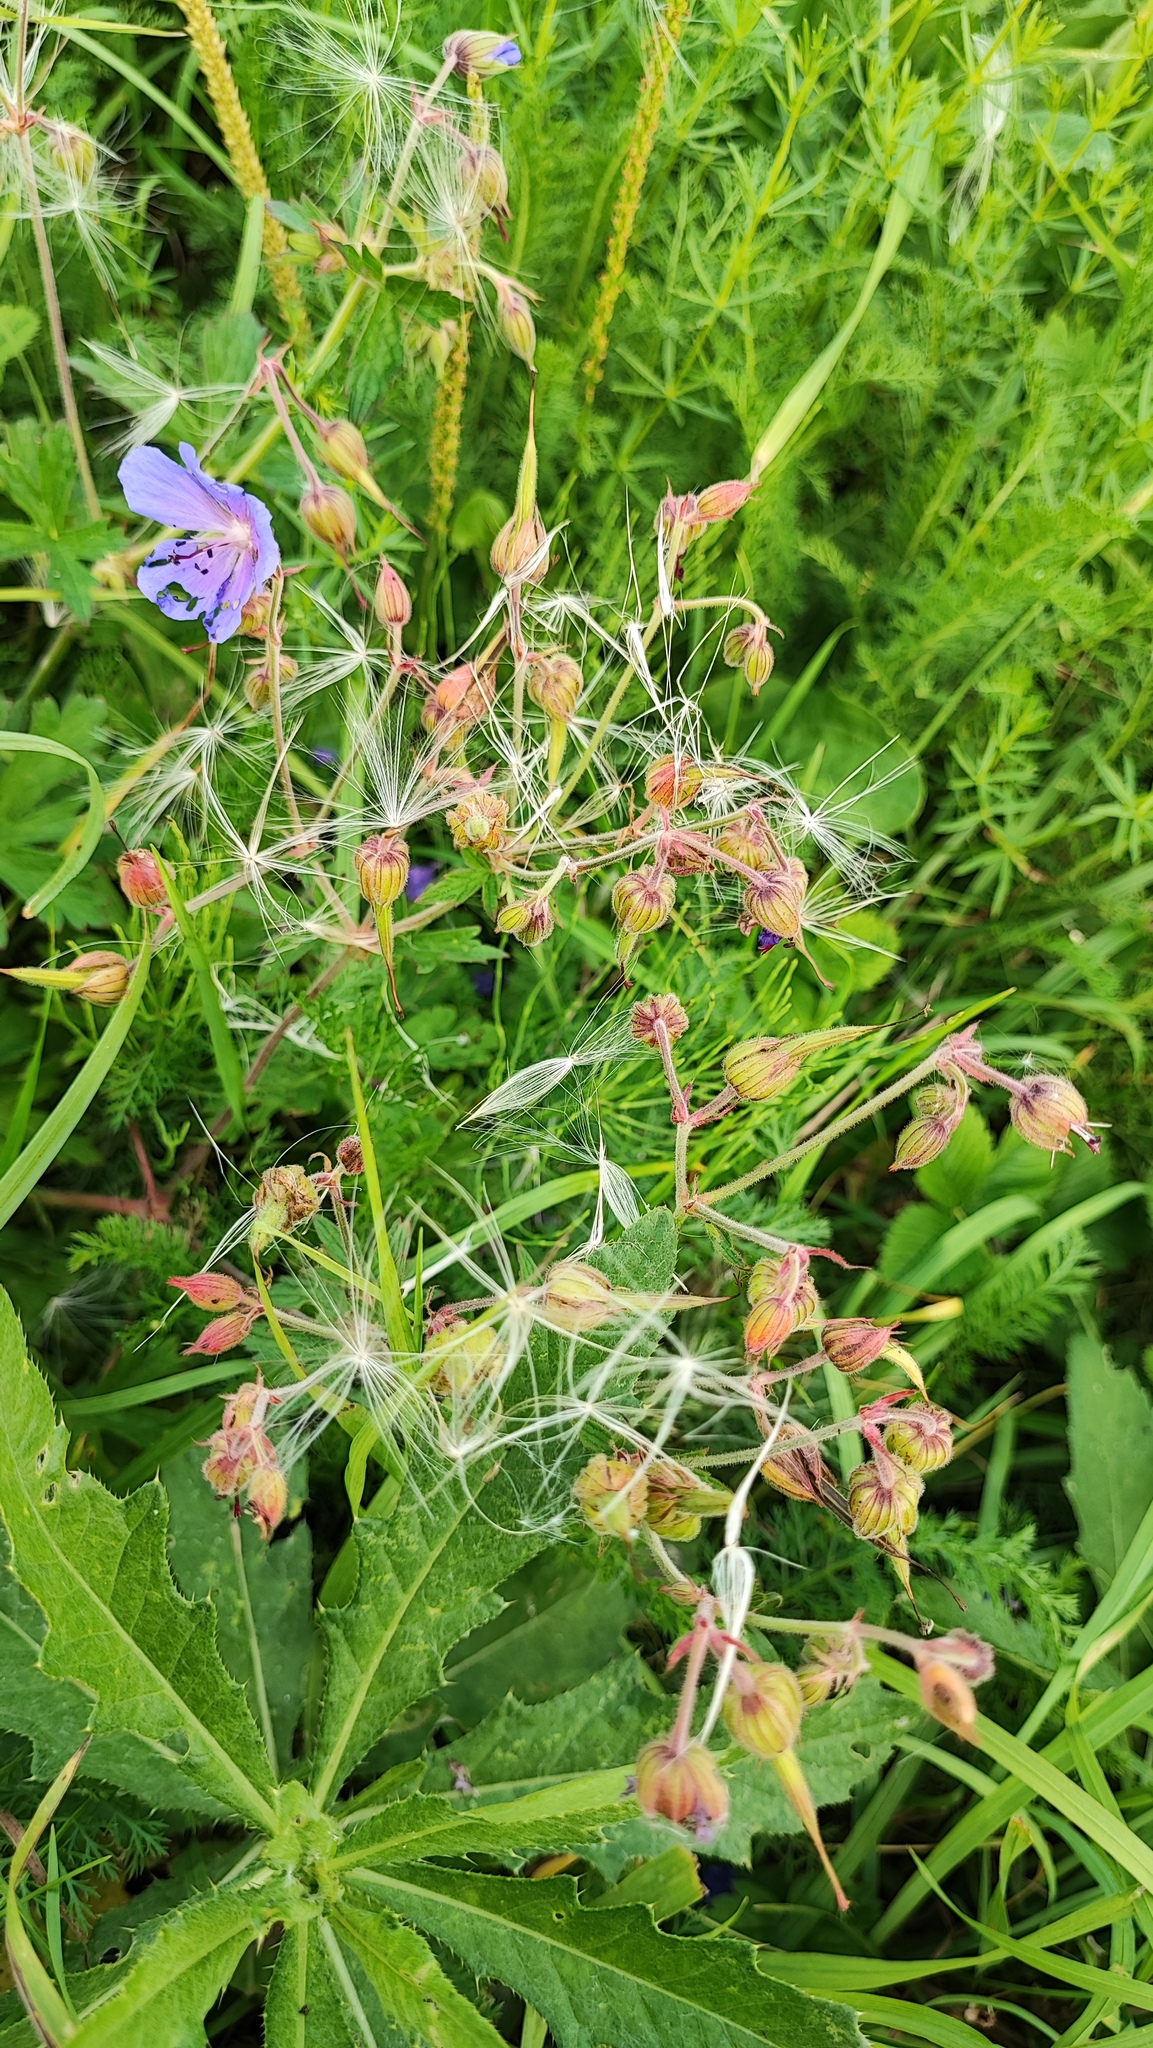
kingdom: Plantae
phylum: Tracheophyta
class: Magnoliopsida
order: Geraniales
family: Geraniaceae
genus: Geranium
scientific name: Geranium pratense
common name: Meadow crane's-bill
